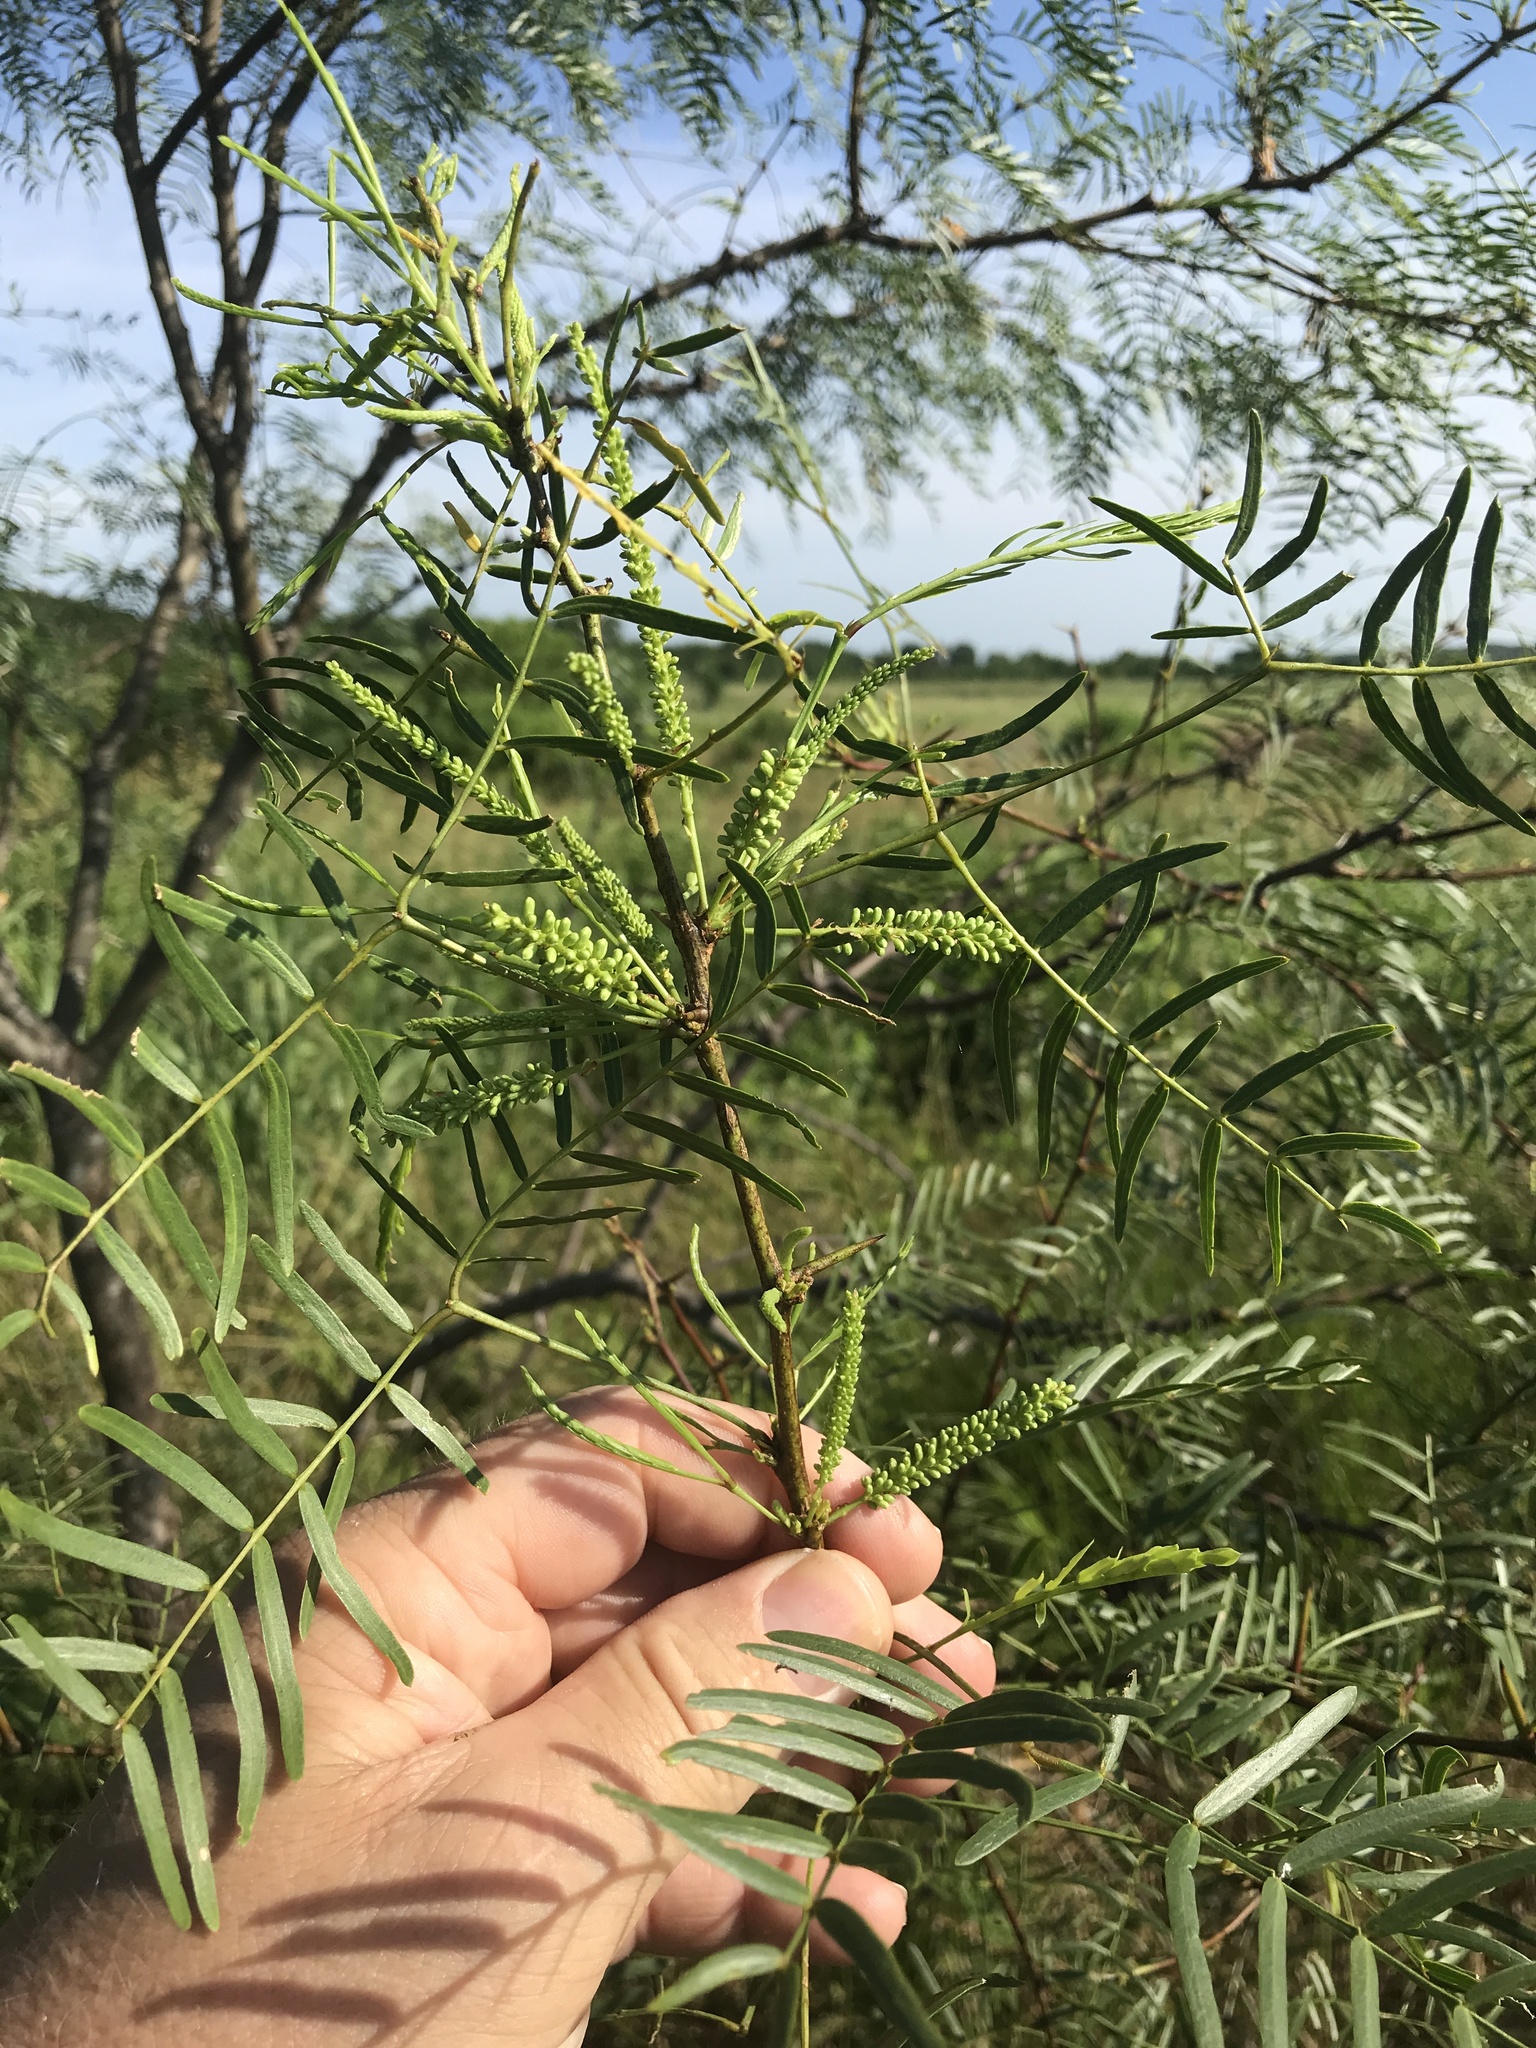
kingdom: Plantae
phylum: Tracheophyta
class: Magnoliopsida
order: Fabales
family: Fabaceae
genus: Prosopis
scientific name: Prosopis glandulosa
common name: Honey mesquite
